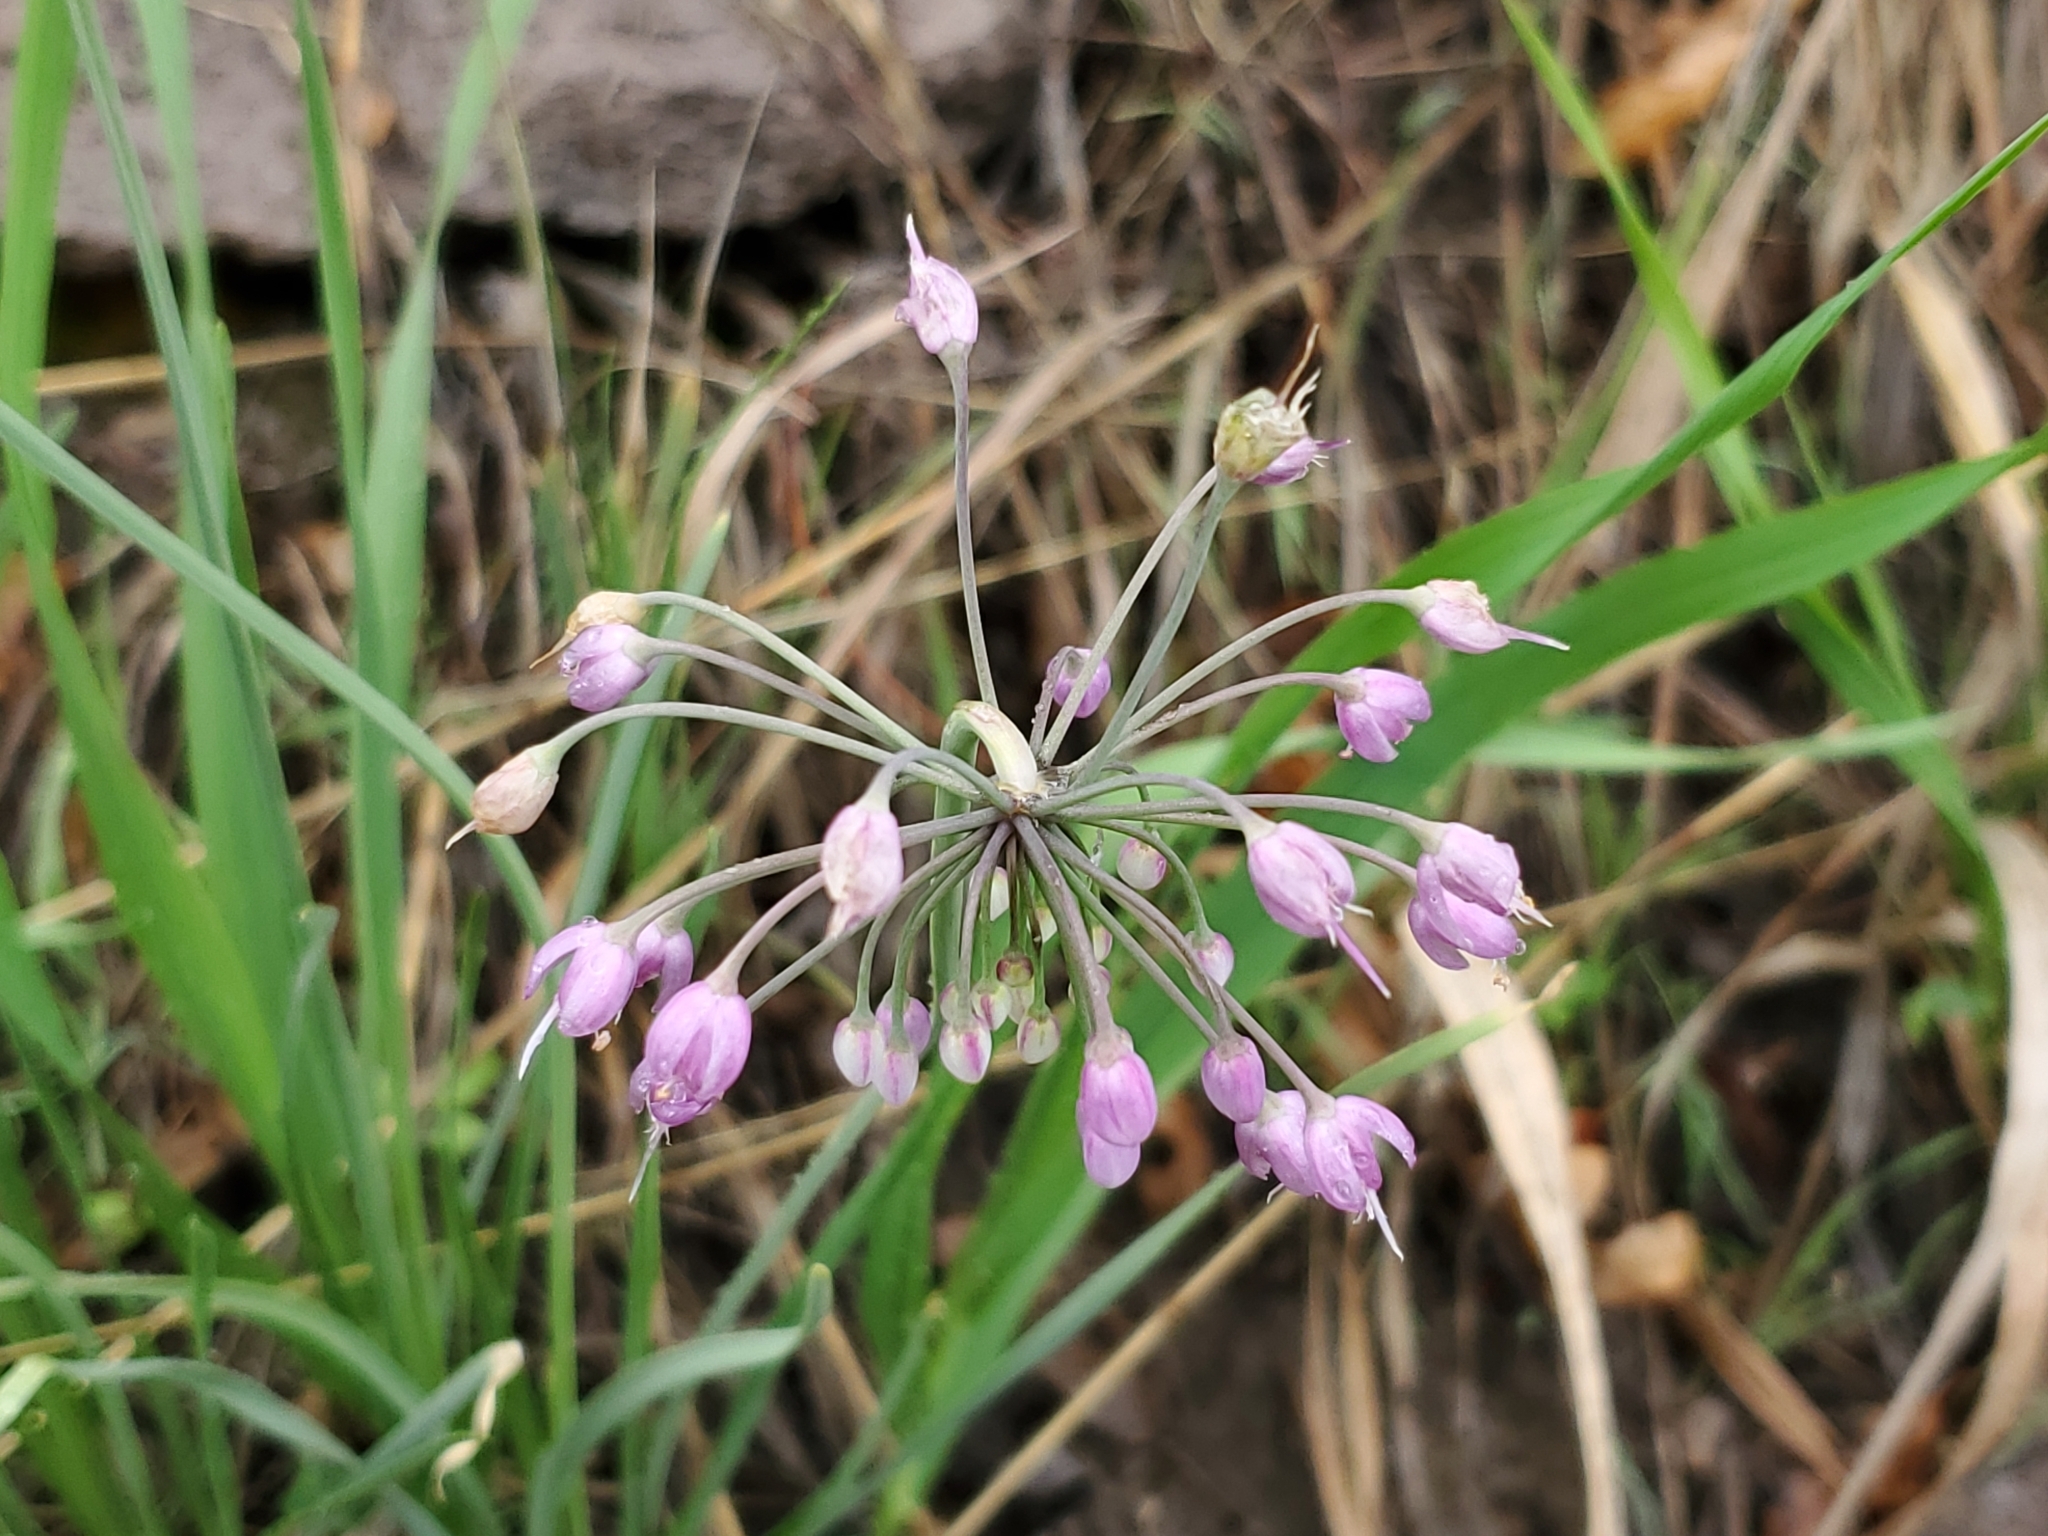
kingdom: Plantae
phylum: Tracheophyta
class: Liliopsida
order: Asparagales
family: Amaryllidaceae
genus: Allium
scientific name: Allium cernuum
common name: Nodding onion
